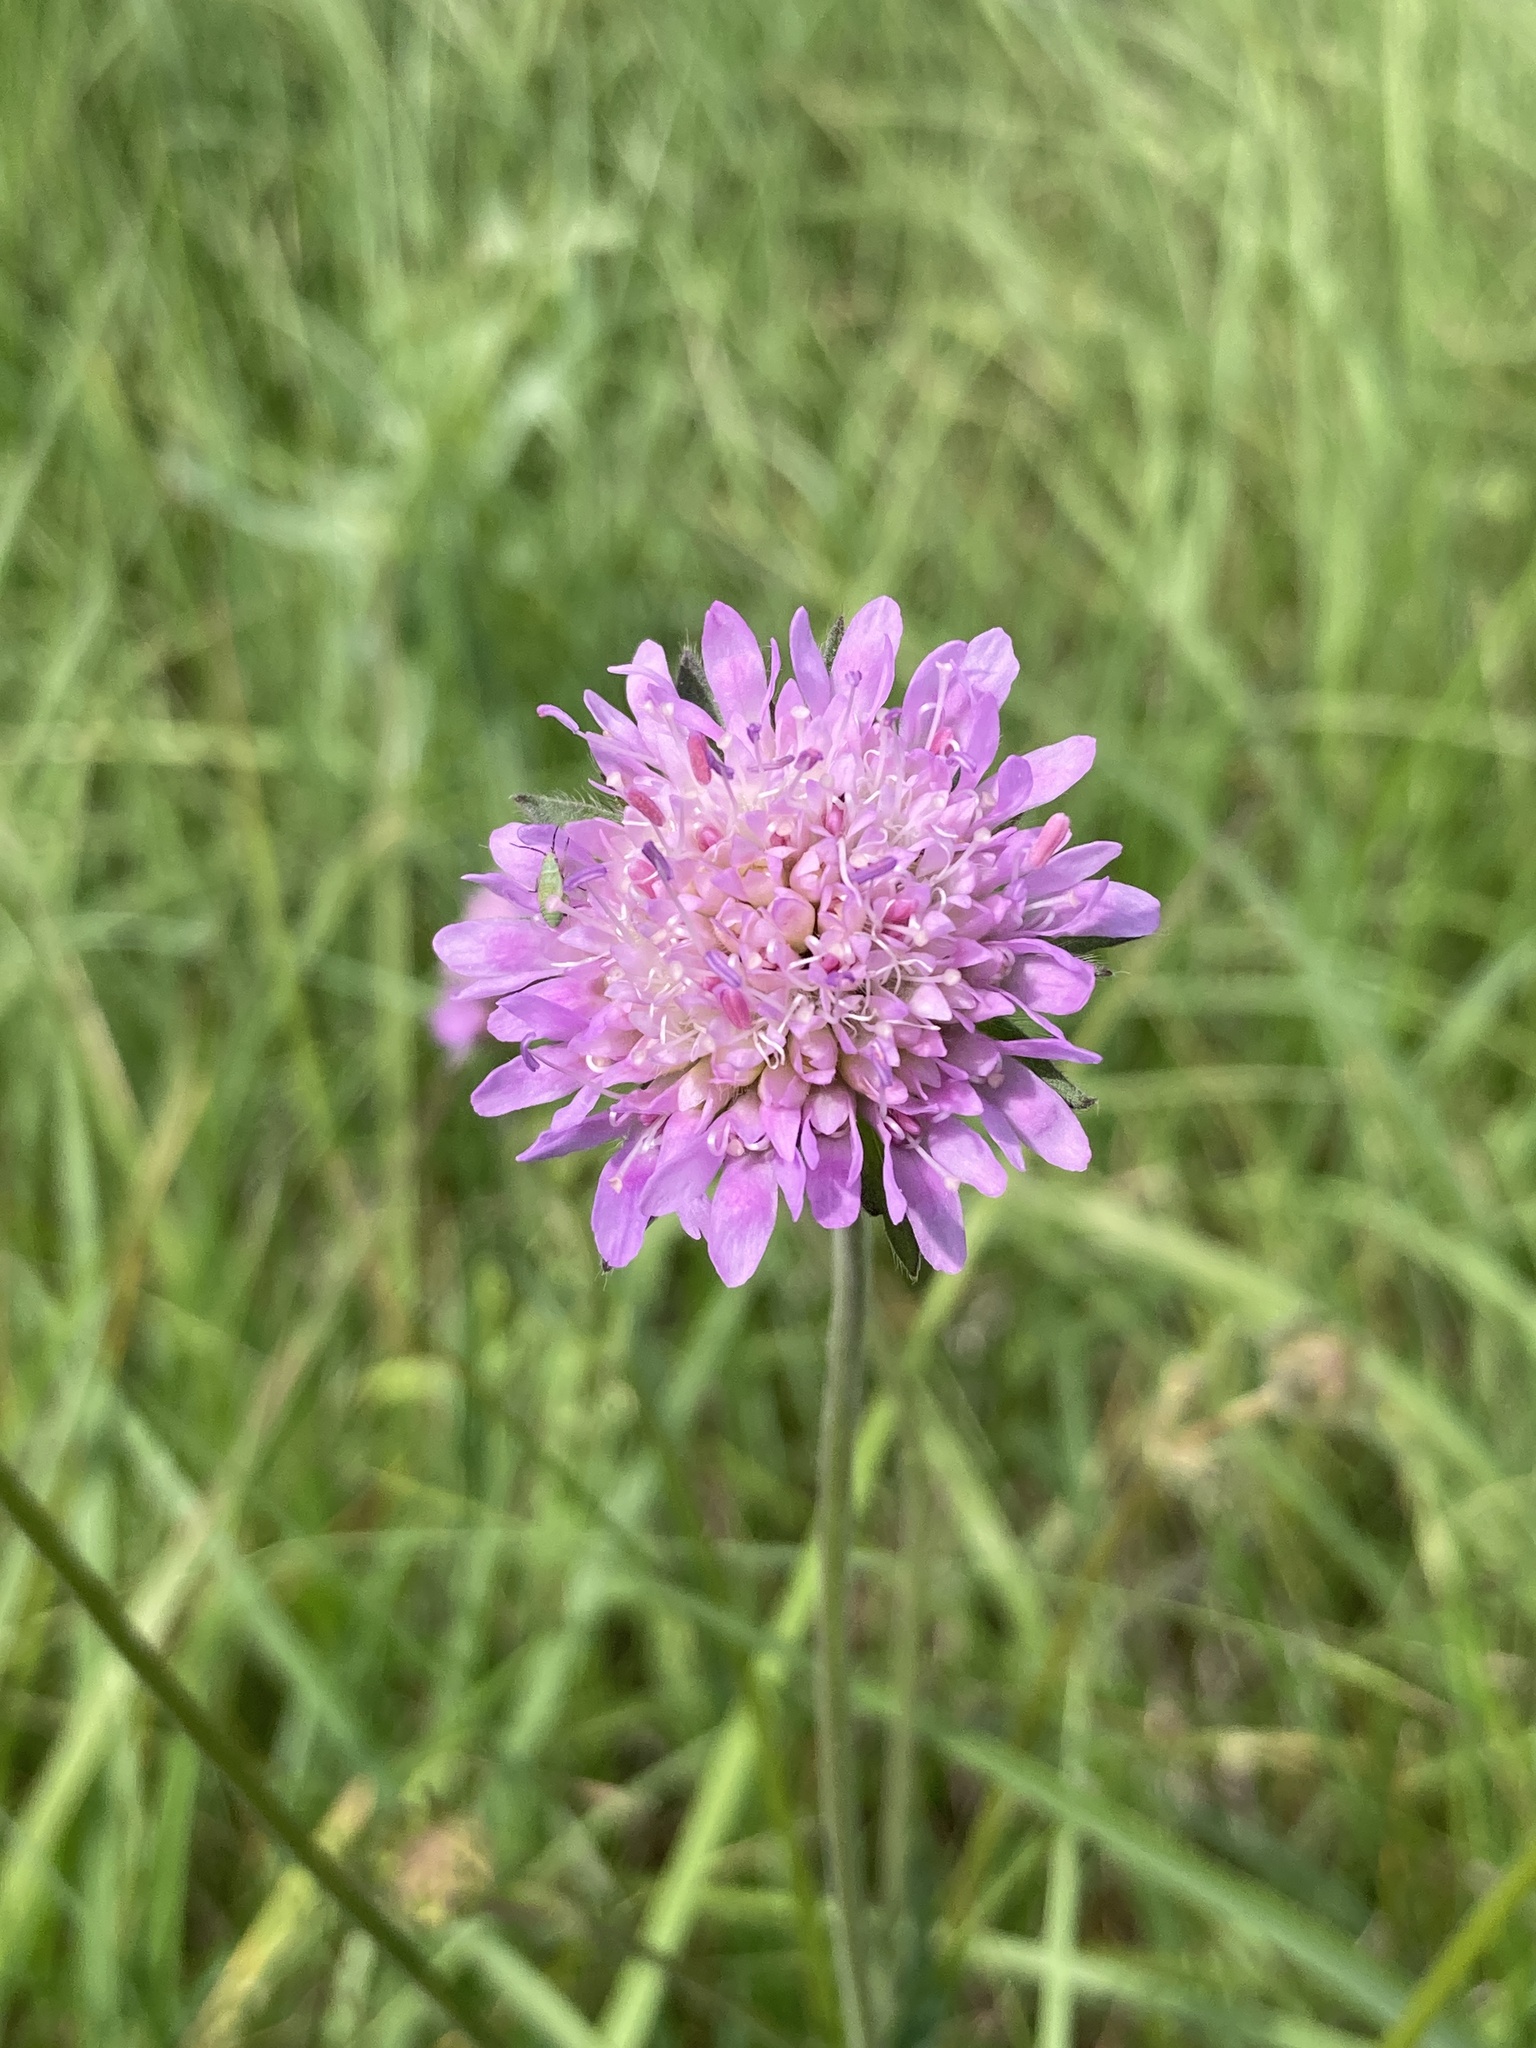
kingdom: Plantae
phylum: Tracheophyta
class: Magnoliopsida
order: Dipsacales
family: Caprifoliaceae
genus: Knautia
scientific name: Knautia arvensis
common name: Field scabiosa
